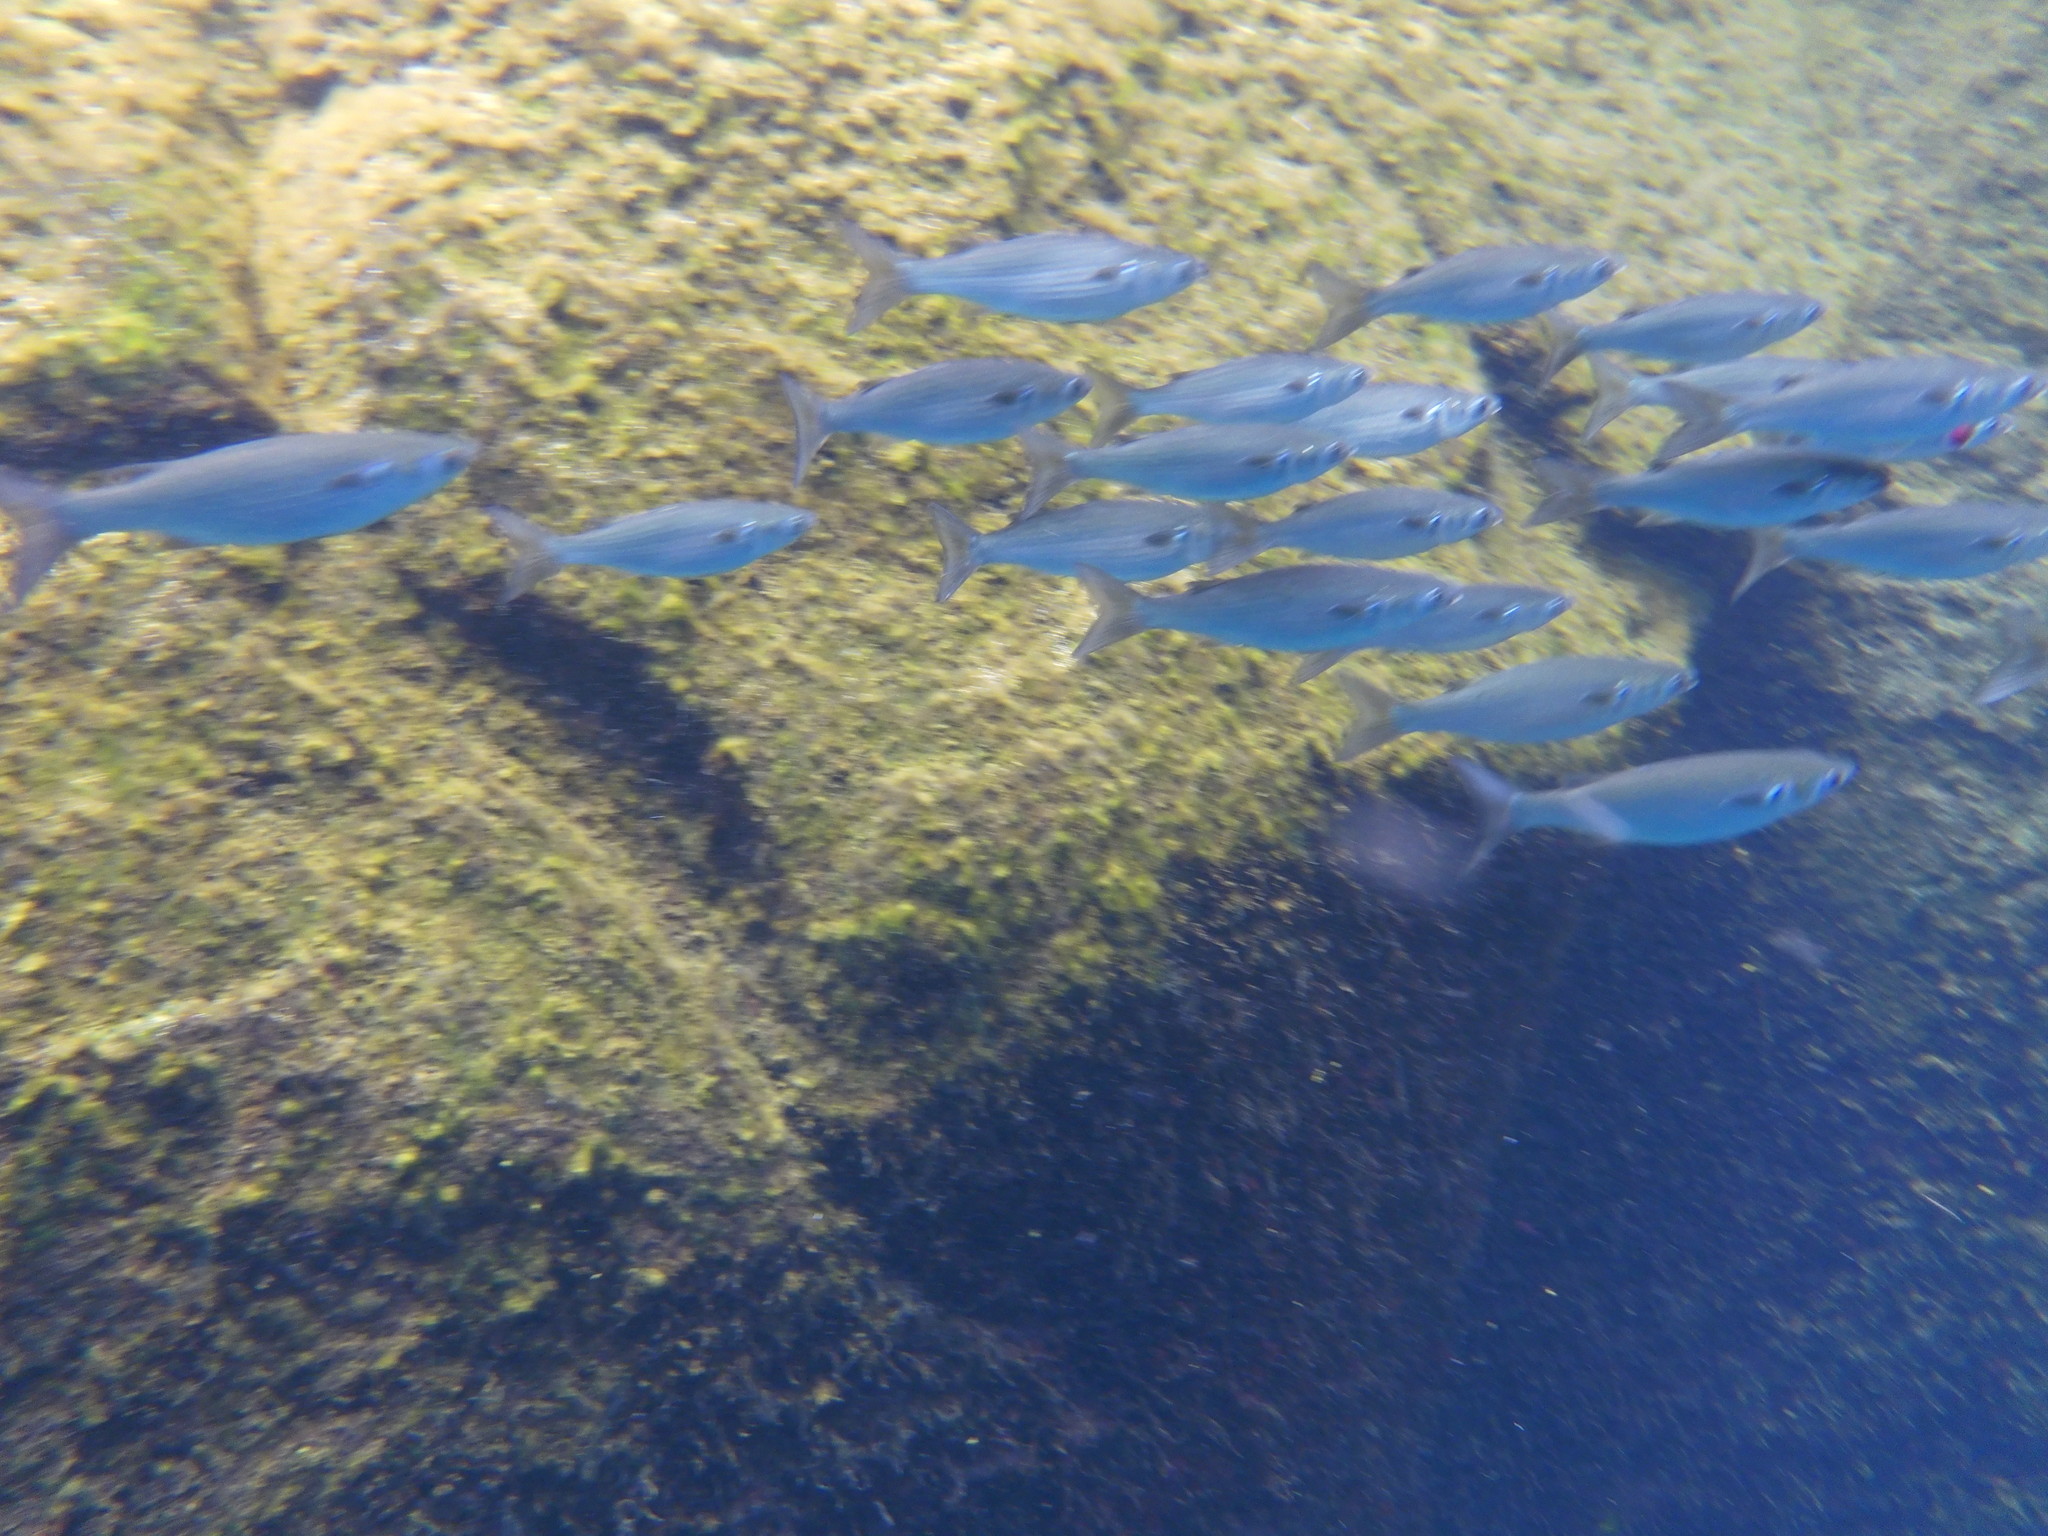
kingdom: Animalia
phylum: Chordata
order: Mugiliformes
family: Mugilidae
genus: Mugil
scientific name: Mugil cephalus
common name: Grey mullet
